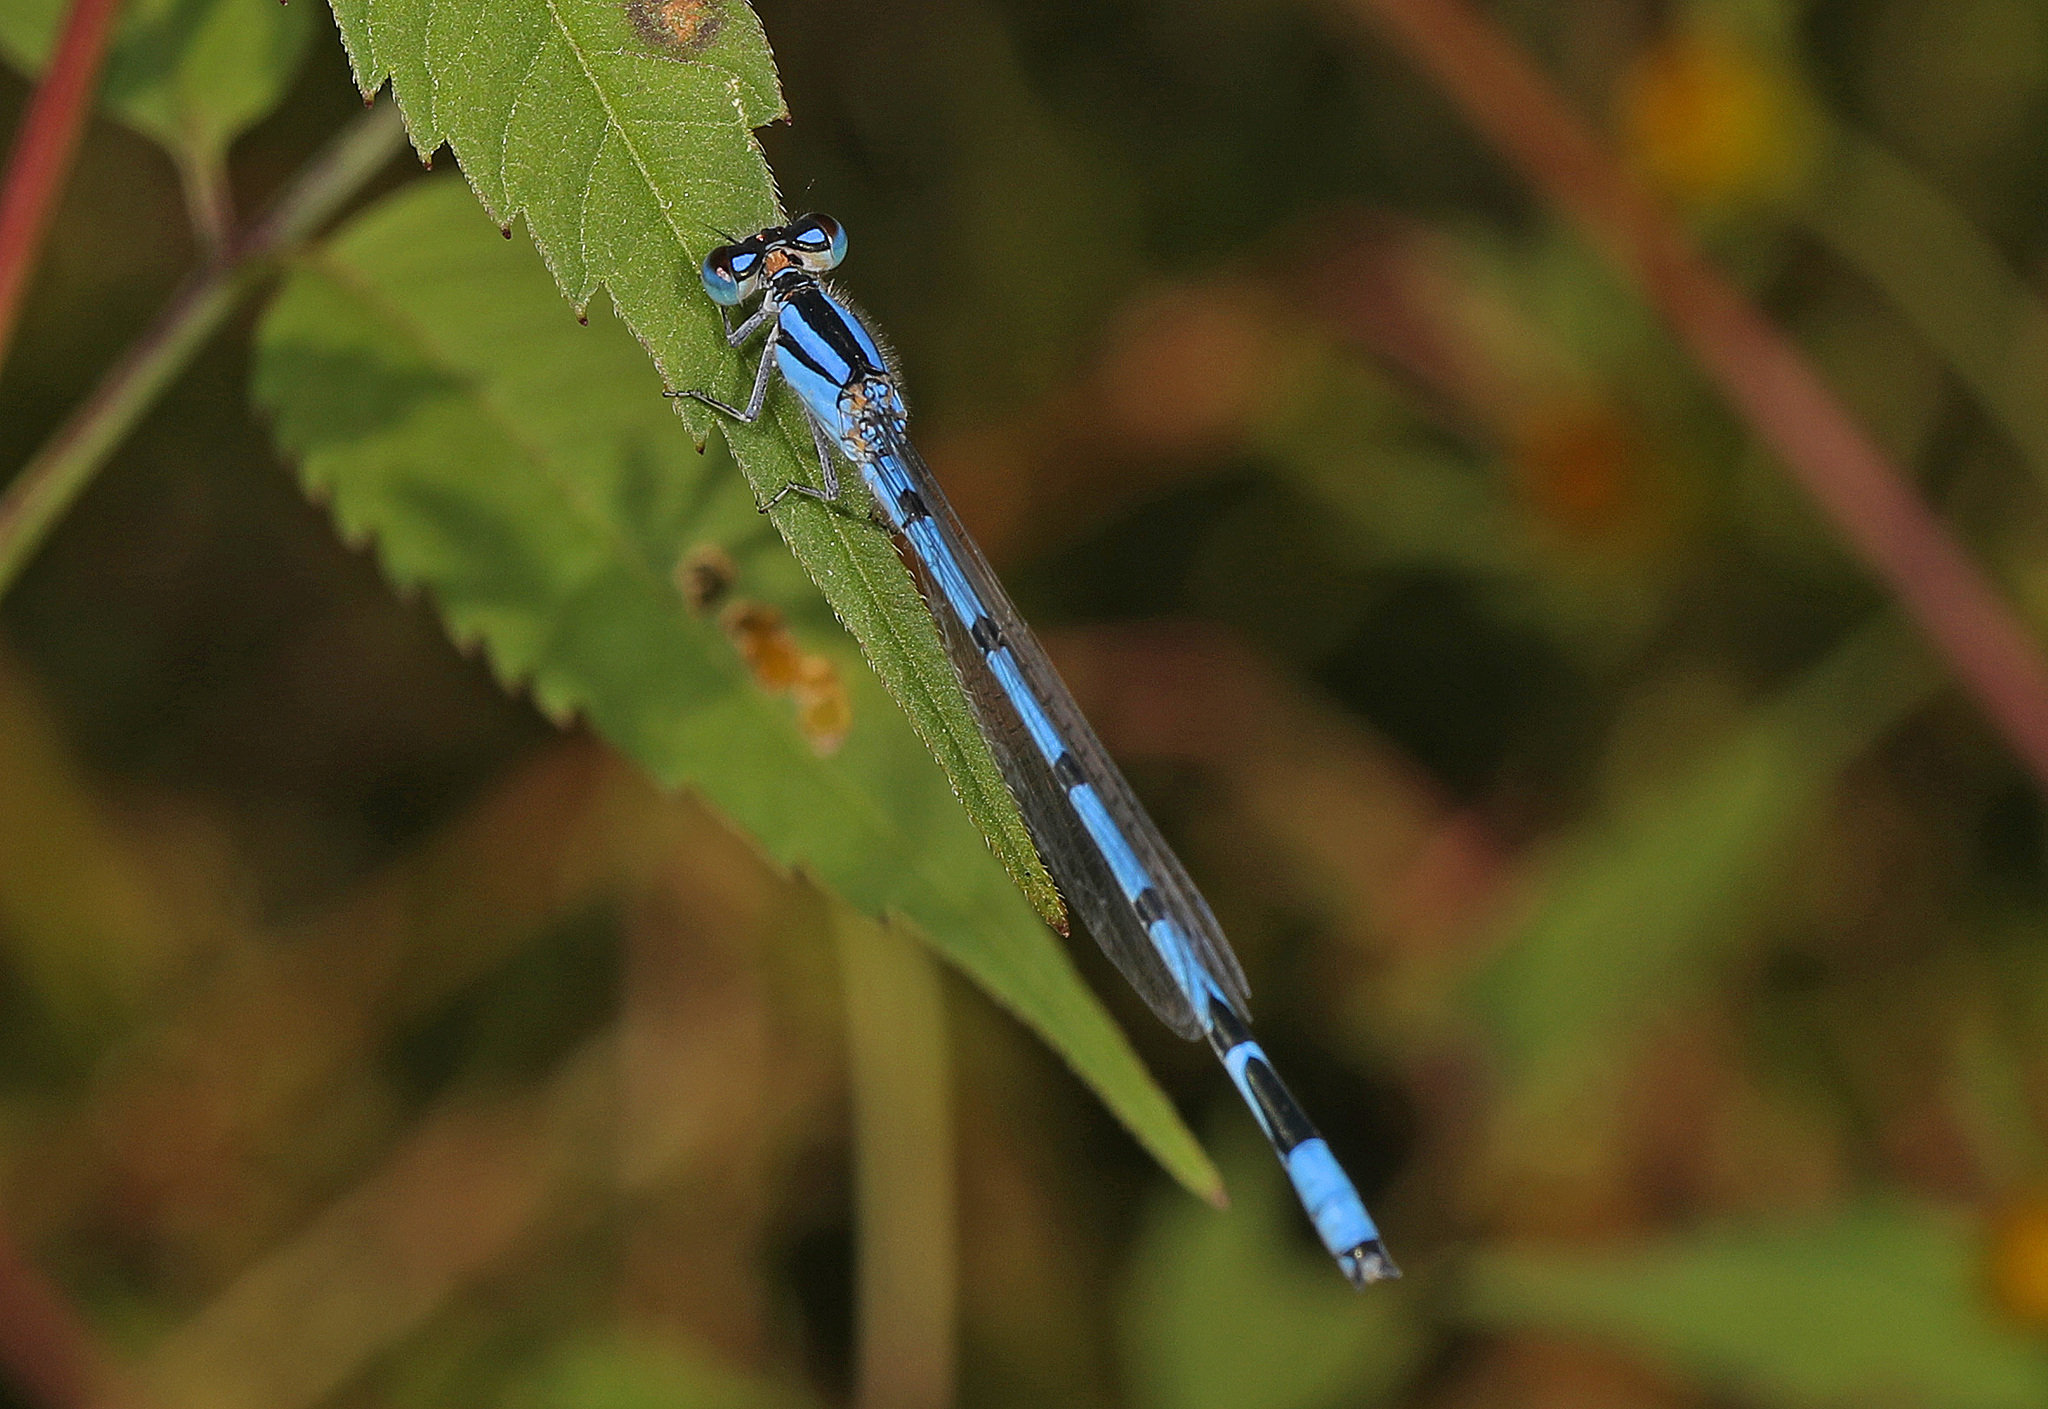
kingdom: Animalia
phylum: Arthropoda
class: Insecta
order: Odonata
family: Coenagrionidae
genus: Enallagma
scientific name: Enallagma civile
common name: Damselfly
